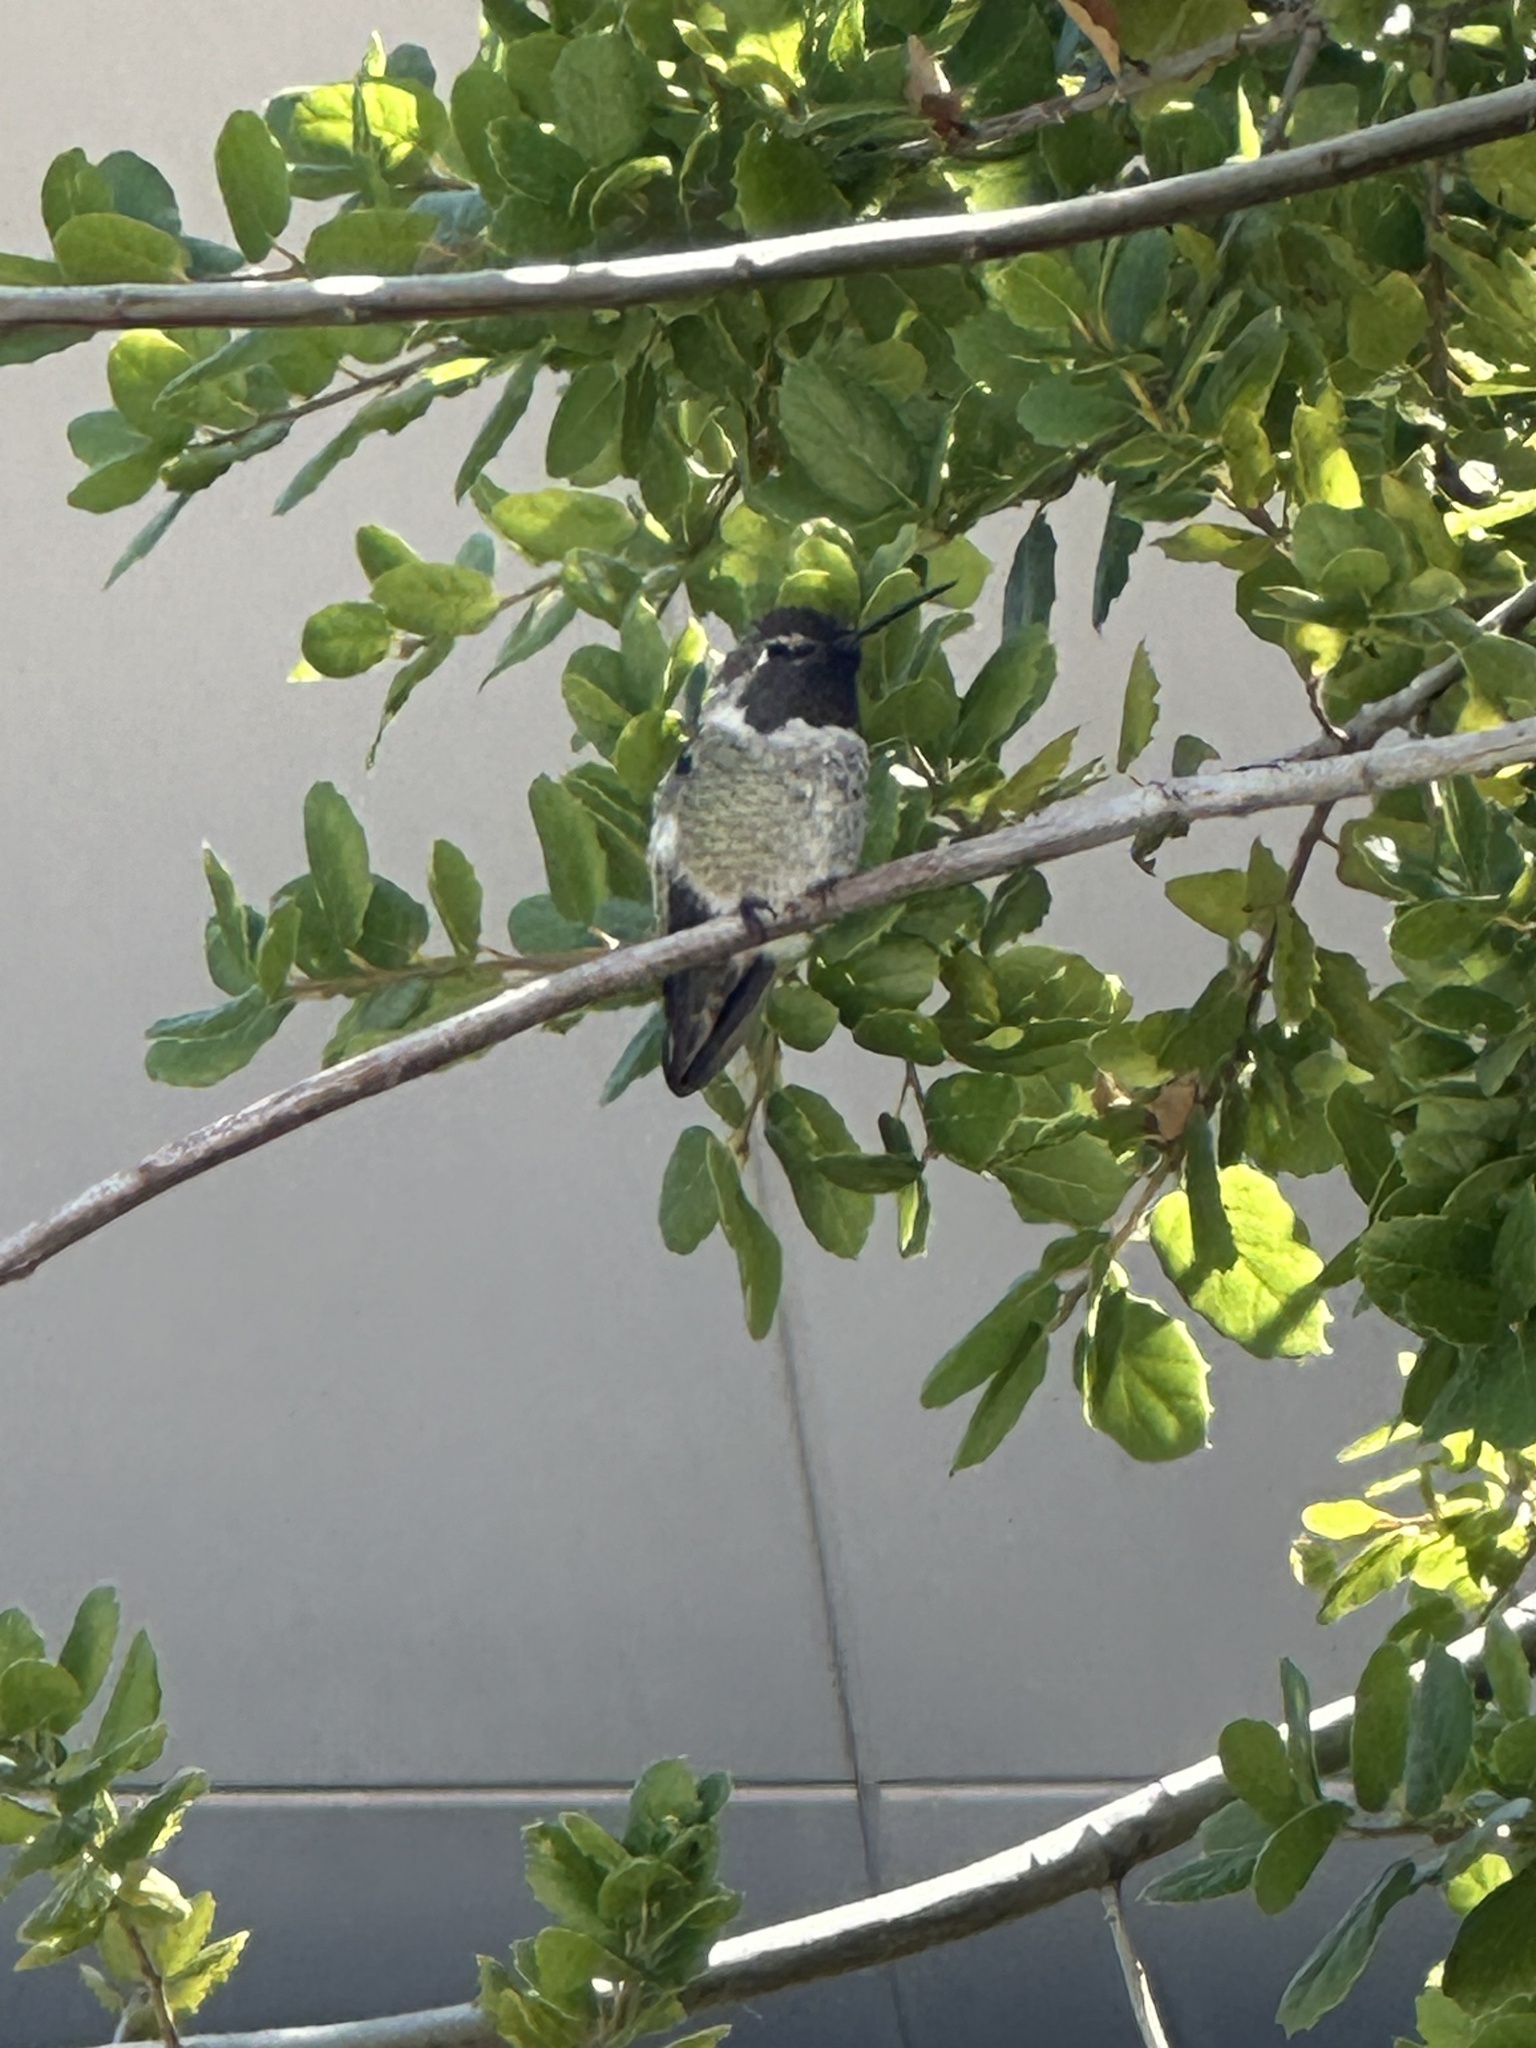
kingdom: Animalia
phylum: Chordata
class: Aves
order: Apodiformes
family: Trochilidae
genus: Calypte
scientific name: Calypte anna
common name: Anna's hummingbird
